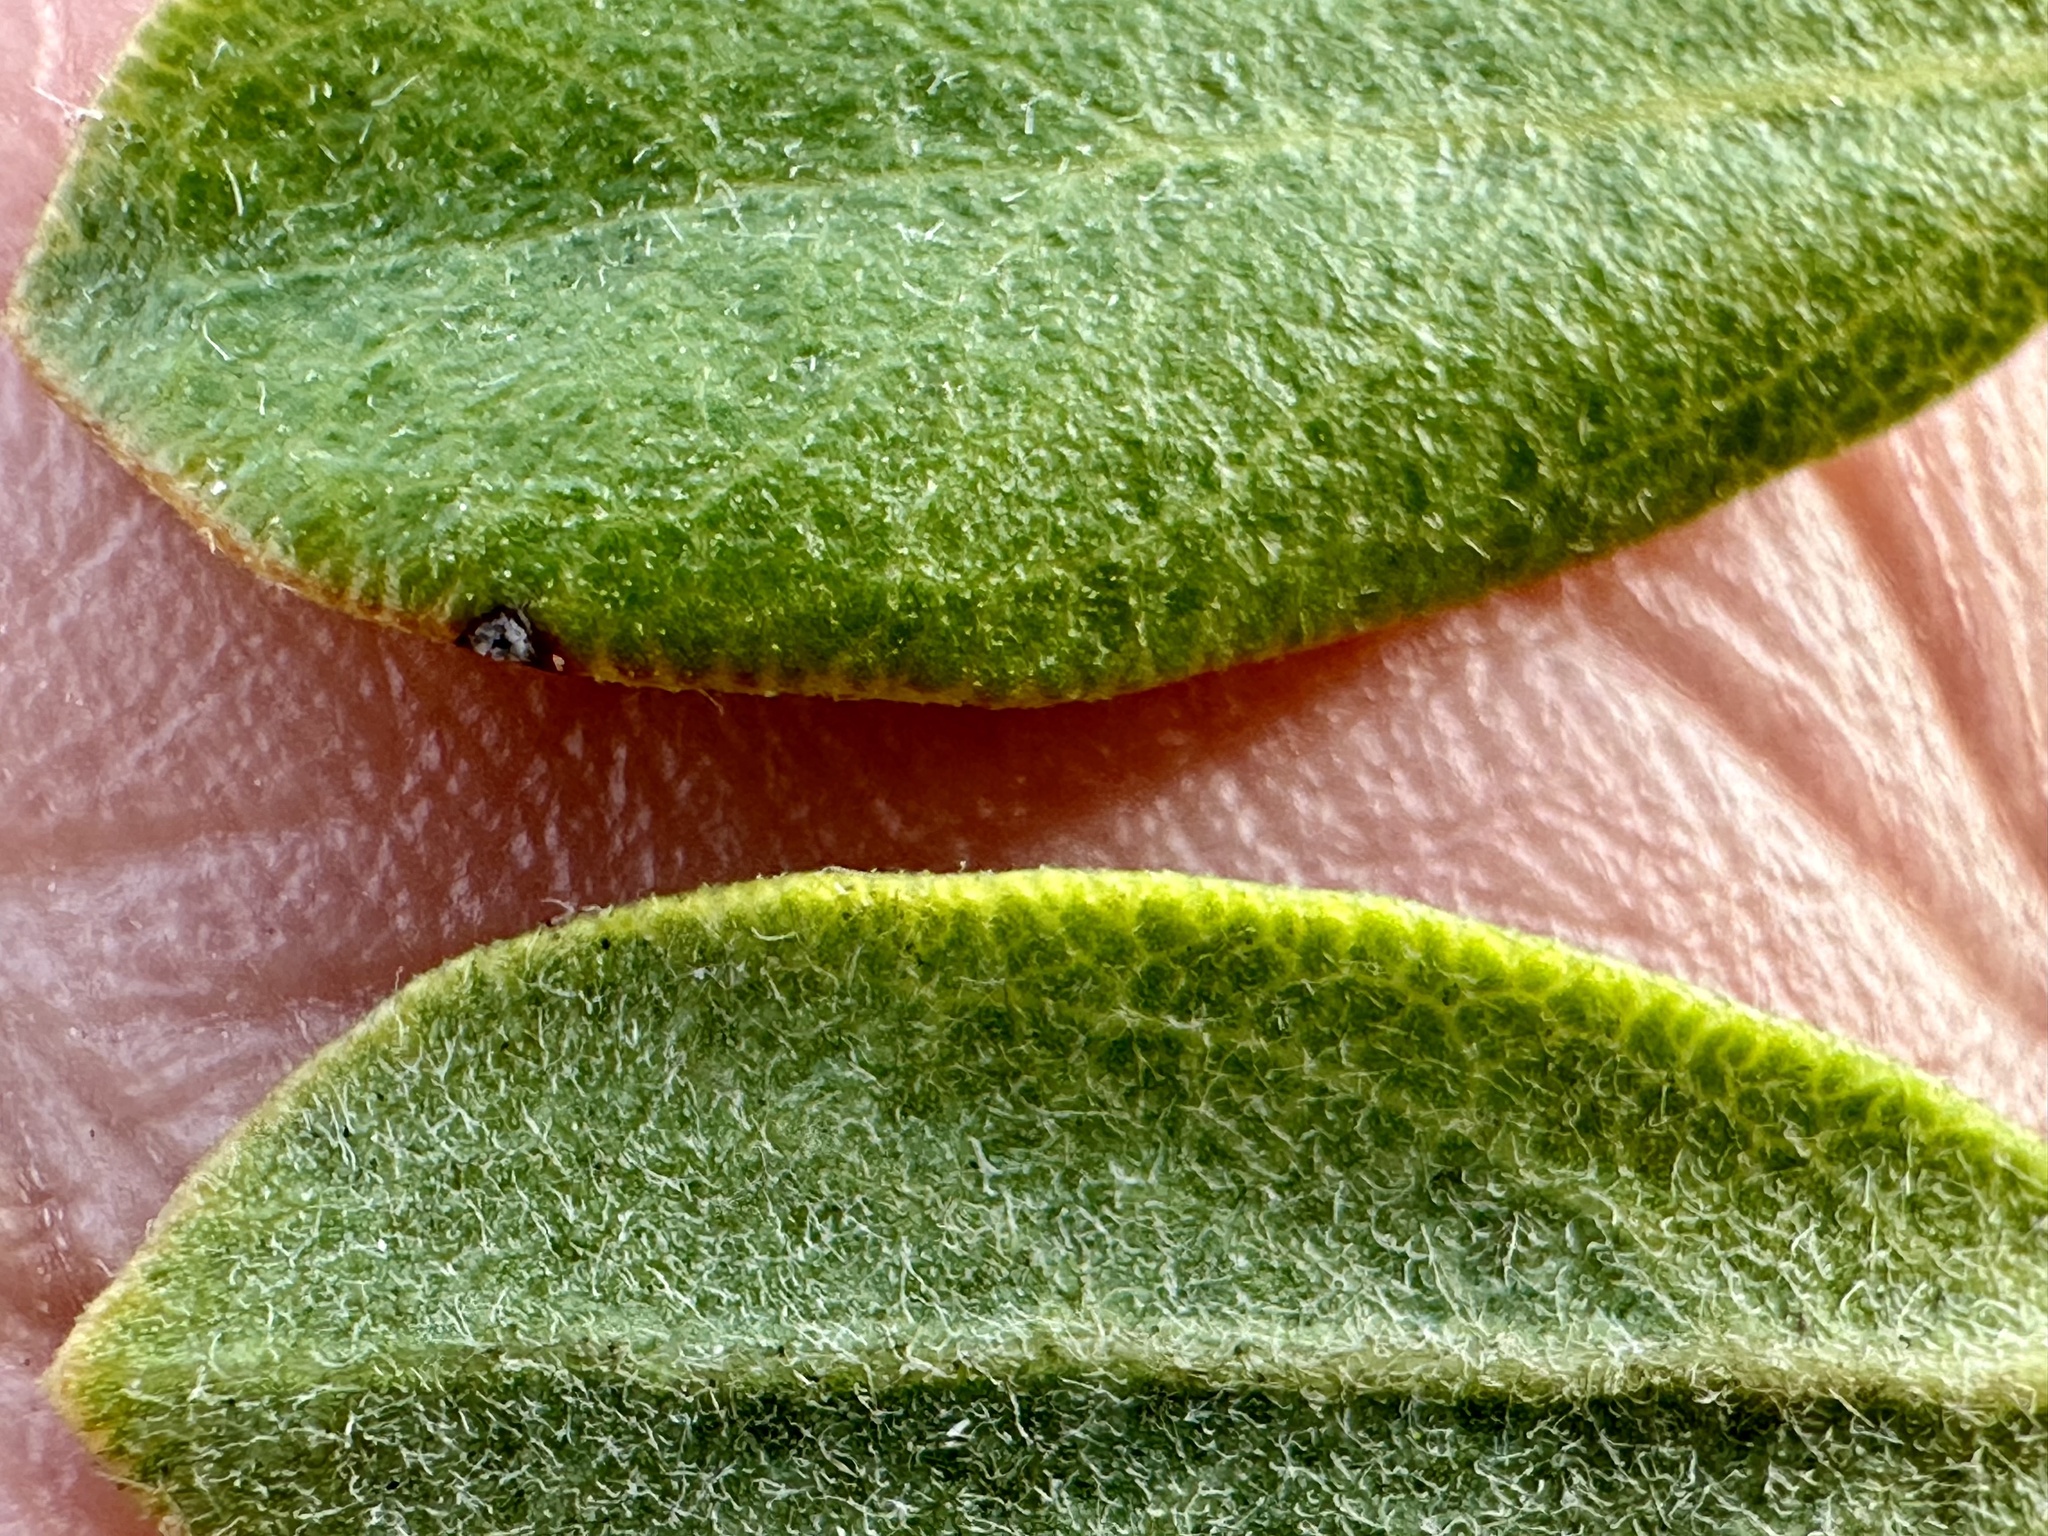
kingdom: Plantae
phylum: Tracheophyta
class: Magnoliopsida
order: Ericales
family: Ericaceae
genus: Arctostaphylos
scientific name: Arctostaphylos pumila
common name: Sandmat manzanita
